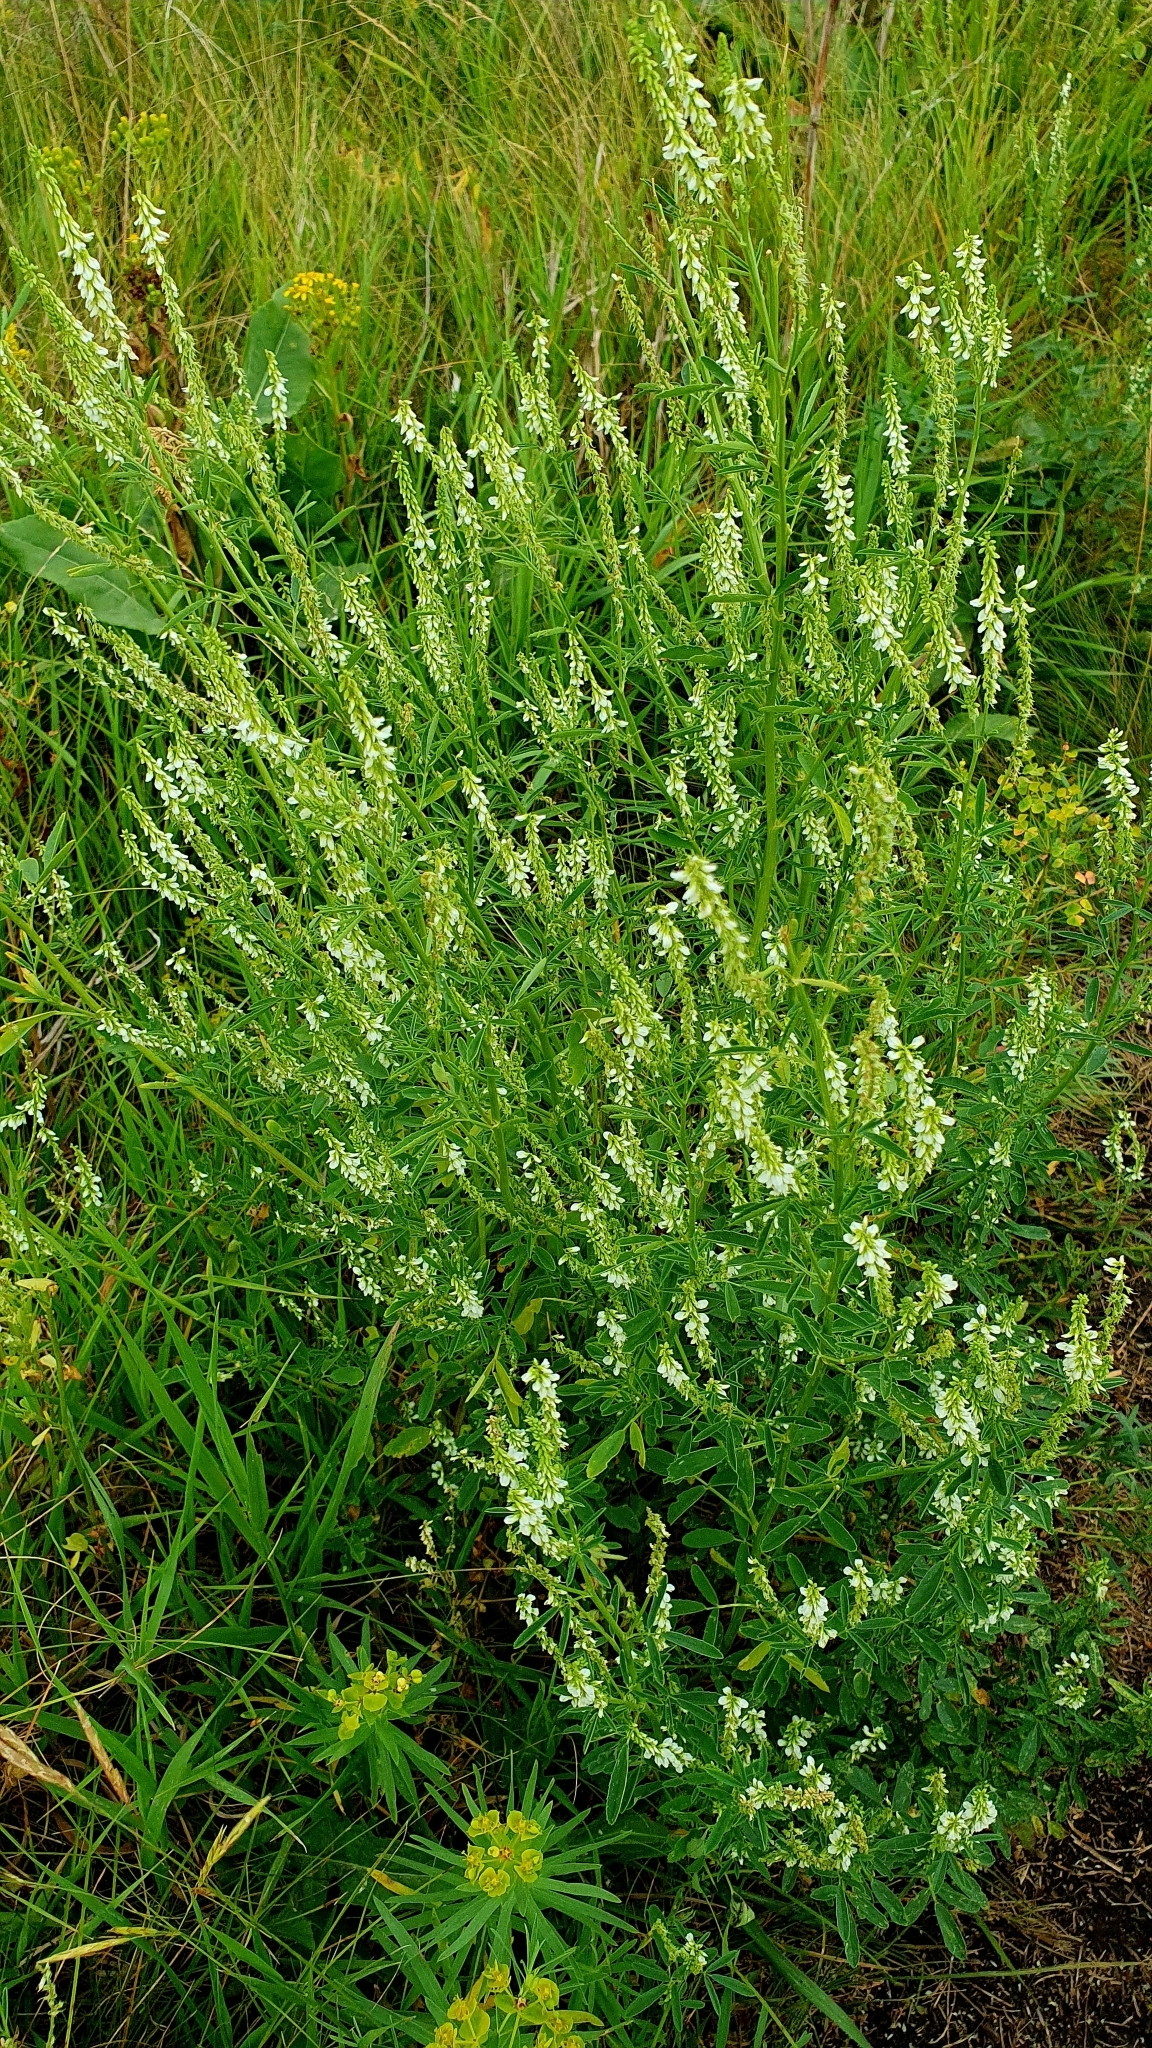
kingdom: Plantae
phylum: Tracheophyta
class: Magnoliopsida
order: Fabales
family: Fabaceae
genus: Melilotus
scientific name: Melilotus albus
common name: White melilot
